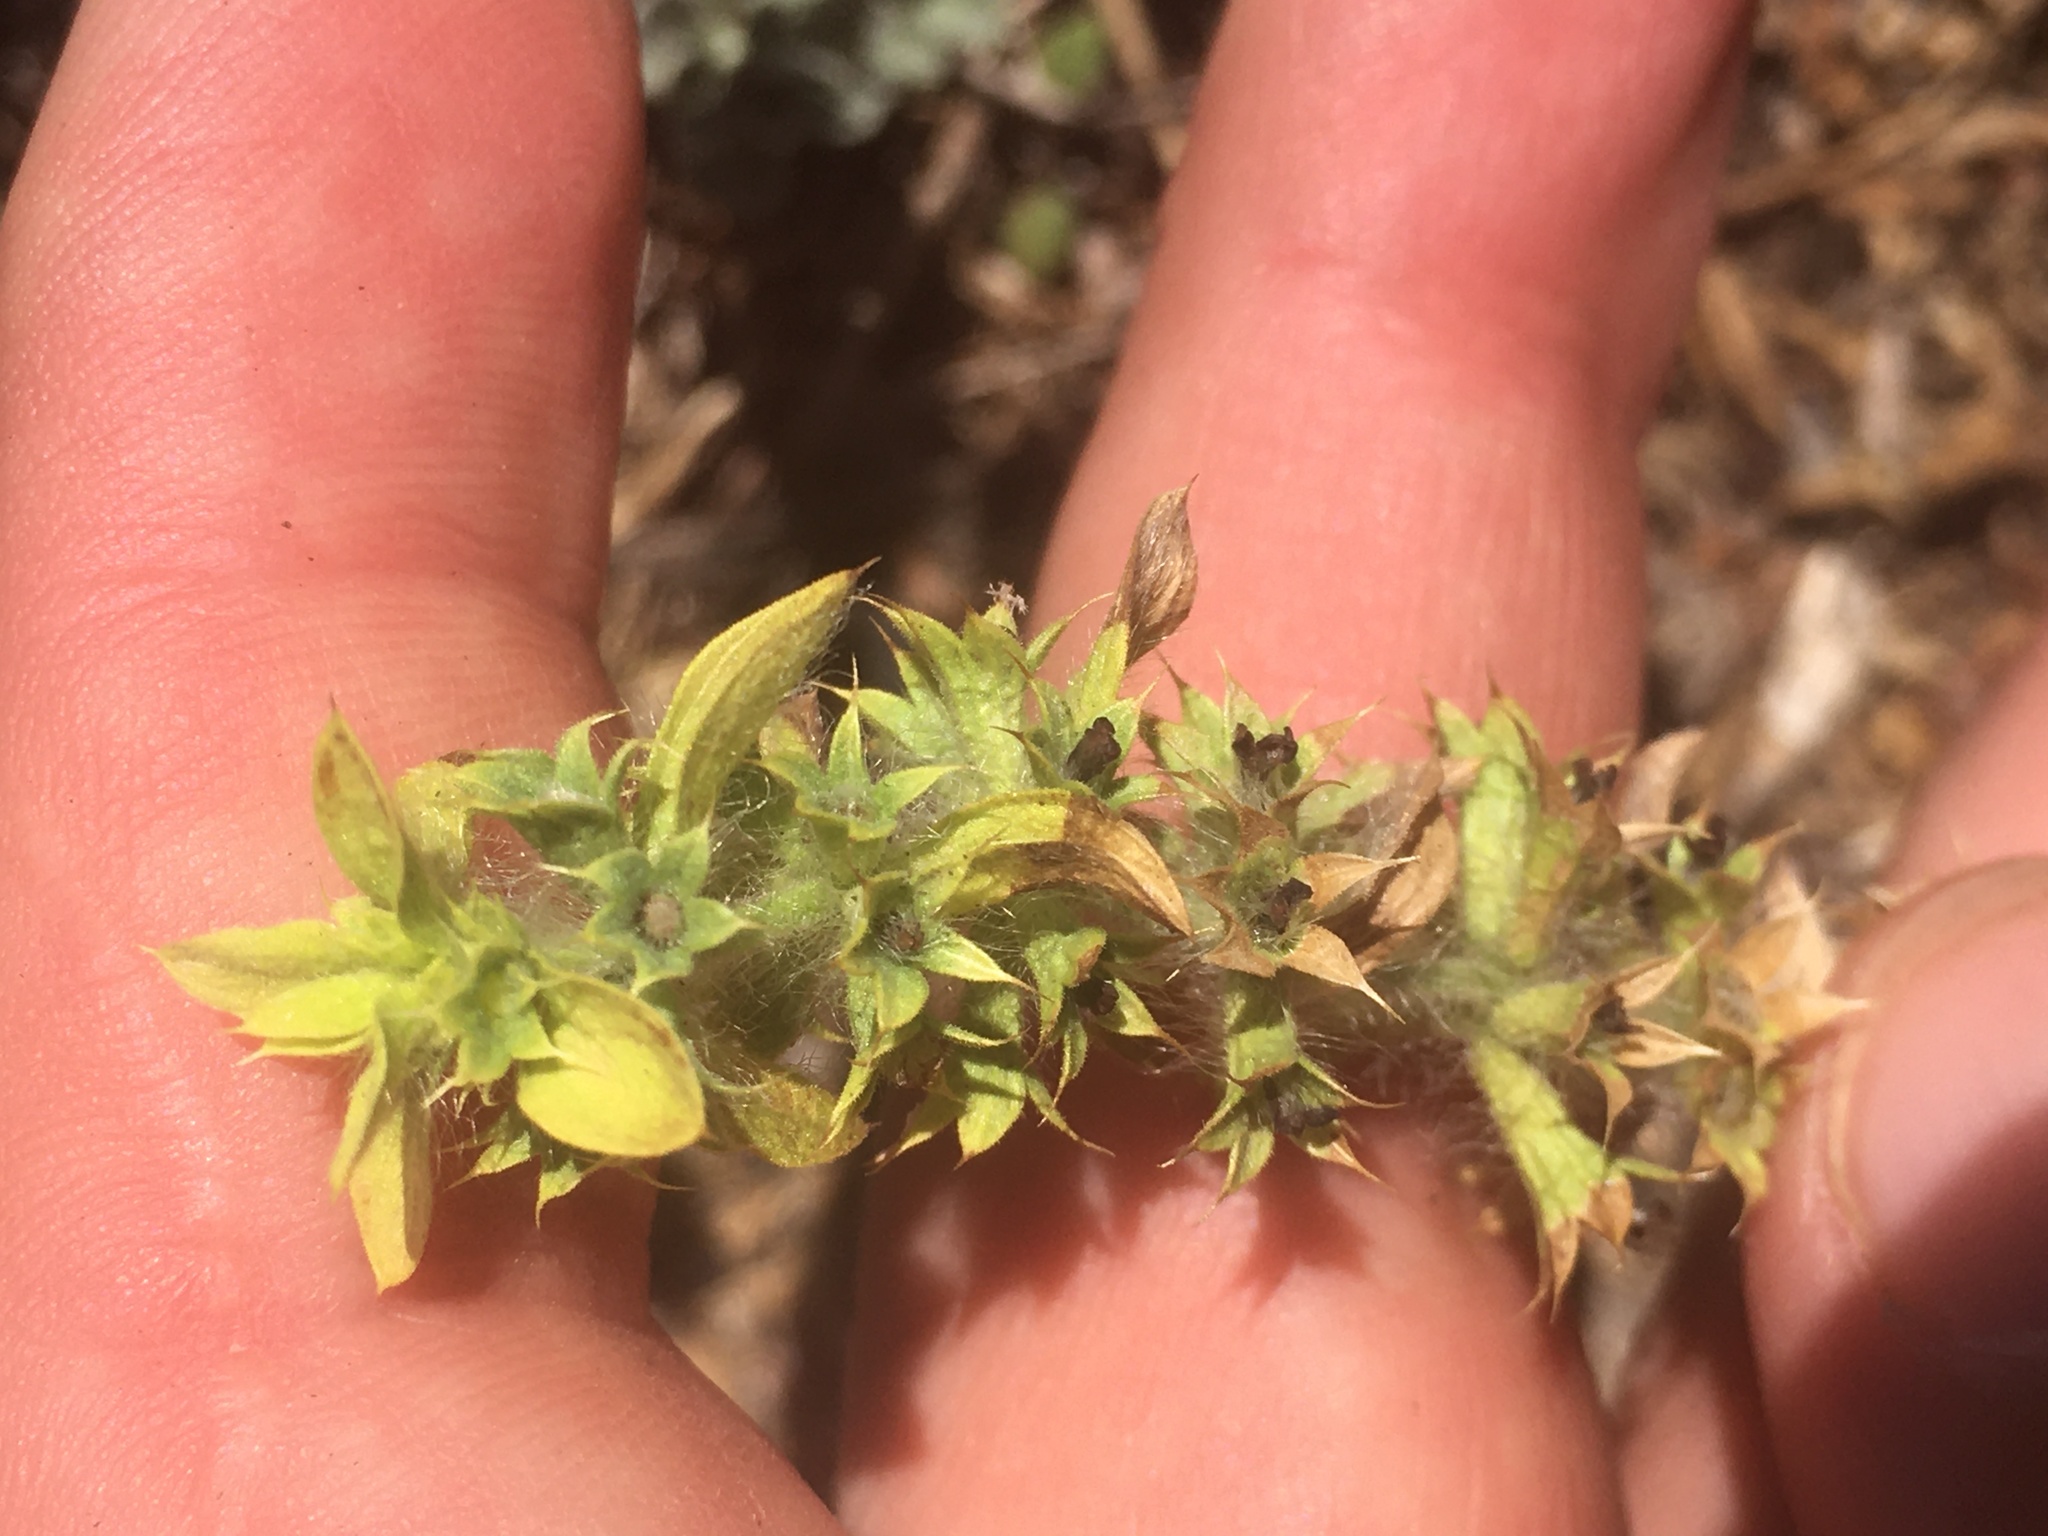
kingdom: Plantae
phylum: Tracheophyta
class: Magnoliopsida
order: Lamiales
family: Lamiaceae
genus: Sideritis
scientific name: Sideritis montana
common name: Mountain ironwort
